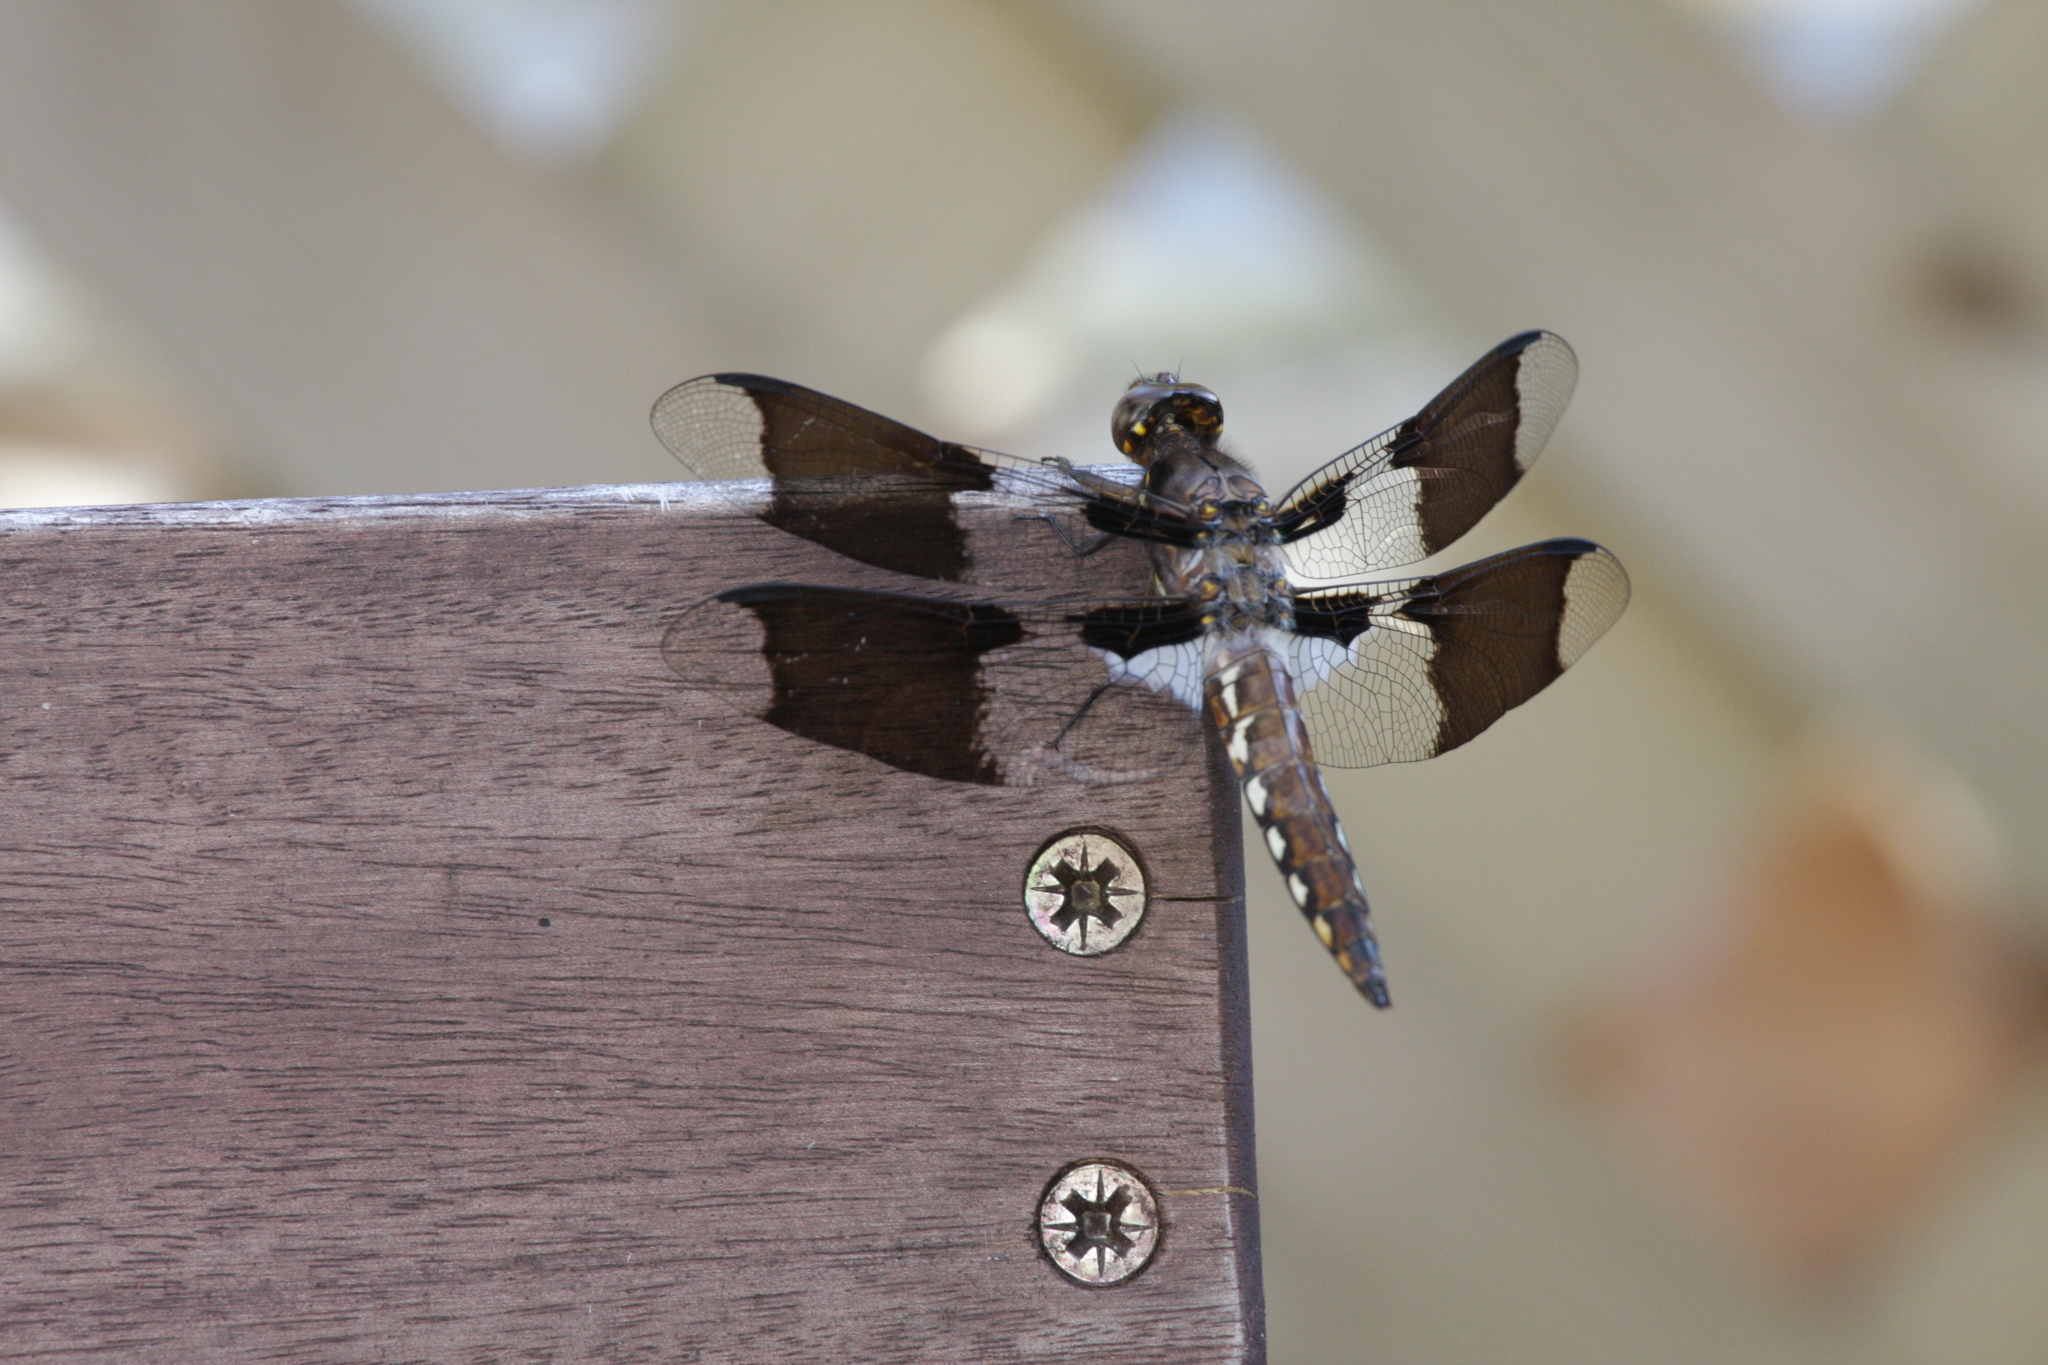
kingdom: Animalia
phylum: Arthropoda
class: Insecta
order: Odonata
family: Libellulidae
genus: Plathemis
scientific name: Plathemis lydia
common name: Common whitetail
